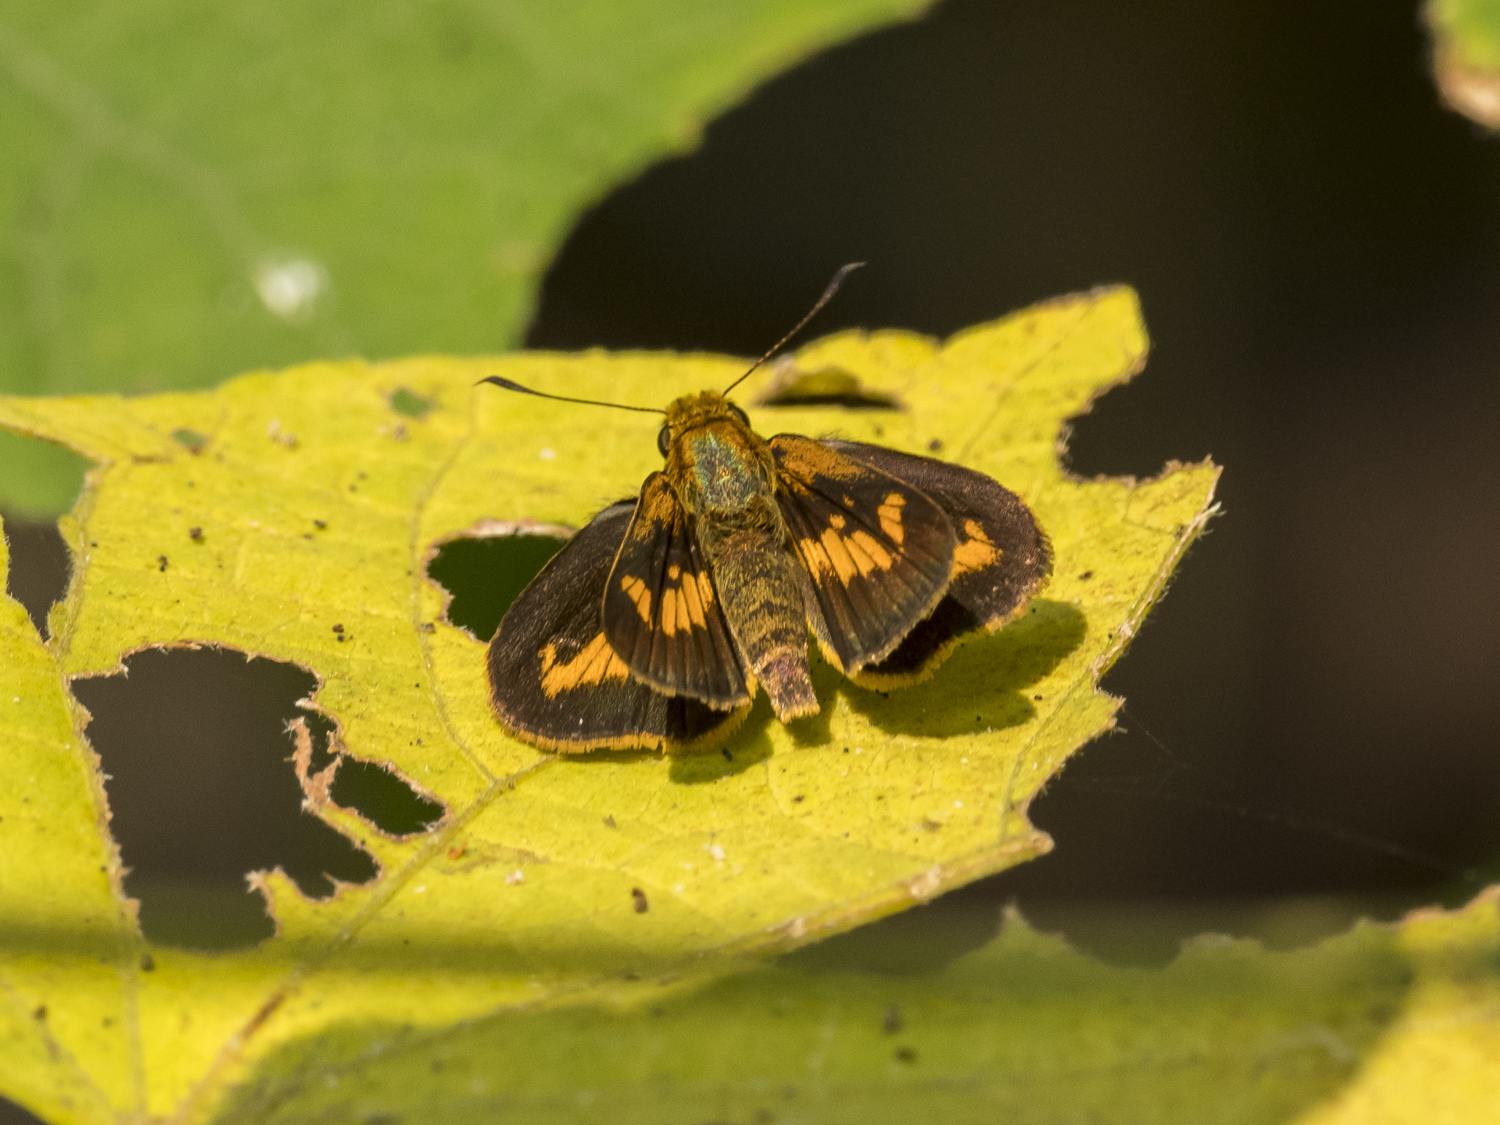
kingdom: Animalia
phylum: Arthropoda
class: Insecta
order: Lepidoptera
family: Hesperiidae
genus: Oriens
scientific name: Oriens goloides
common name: Smaller dartlet
